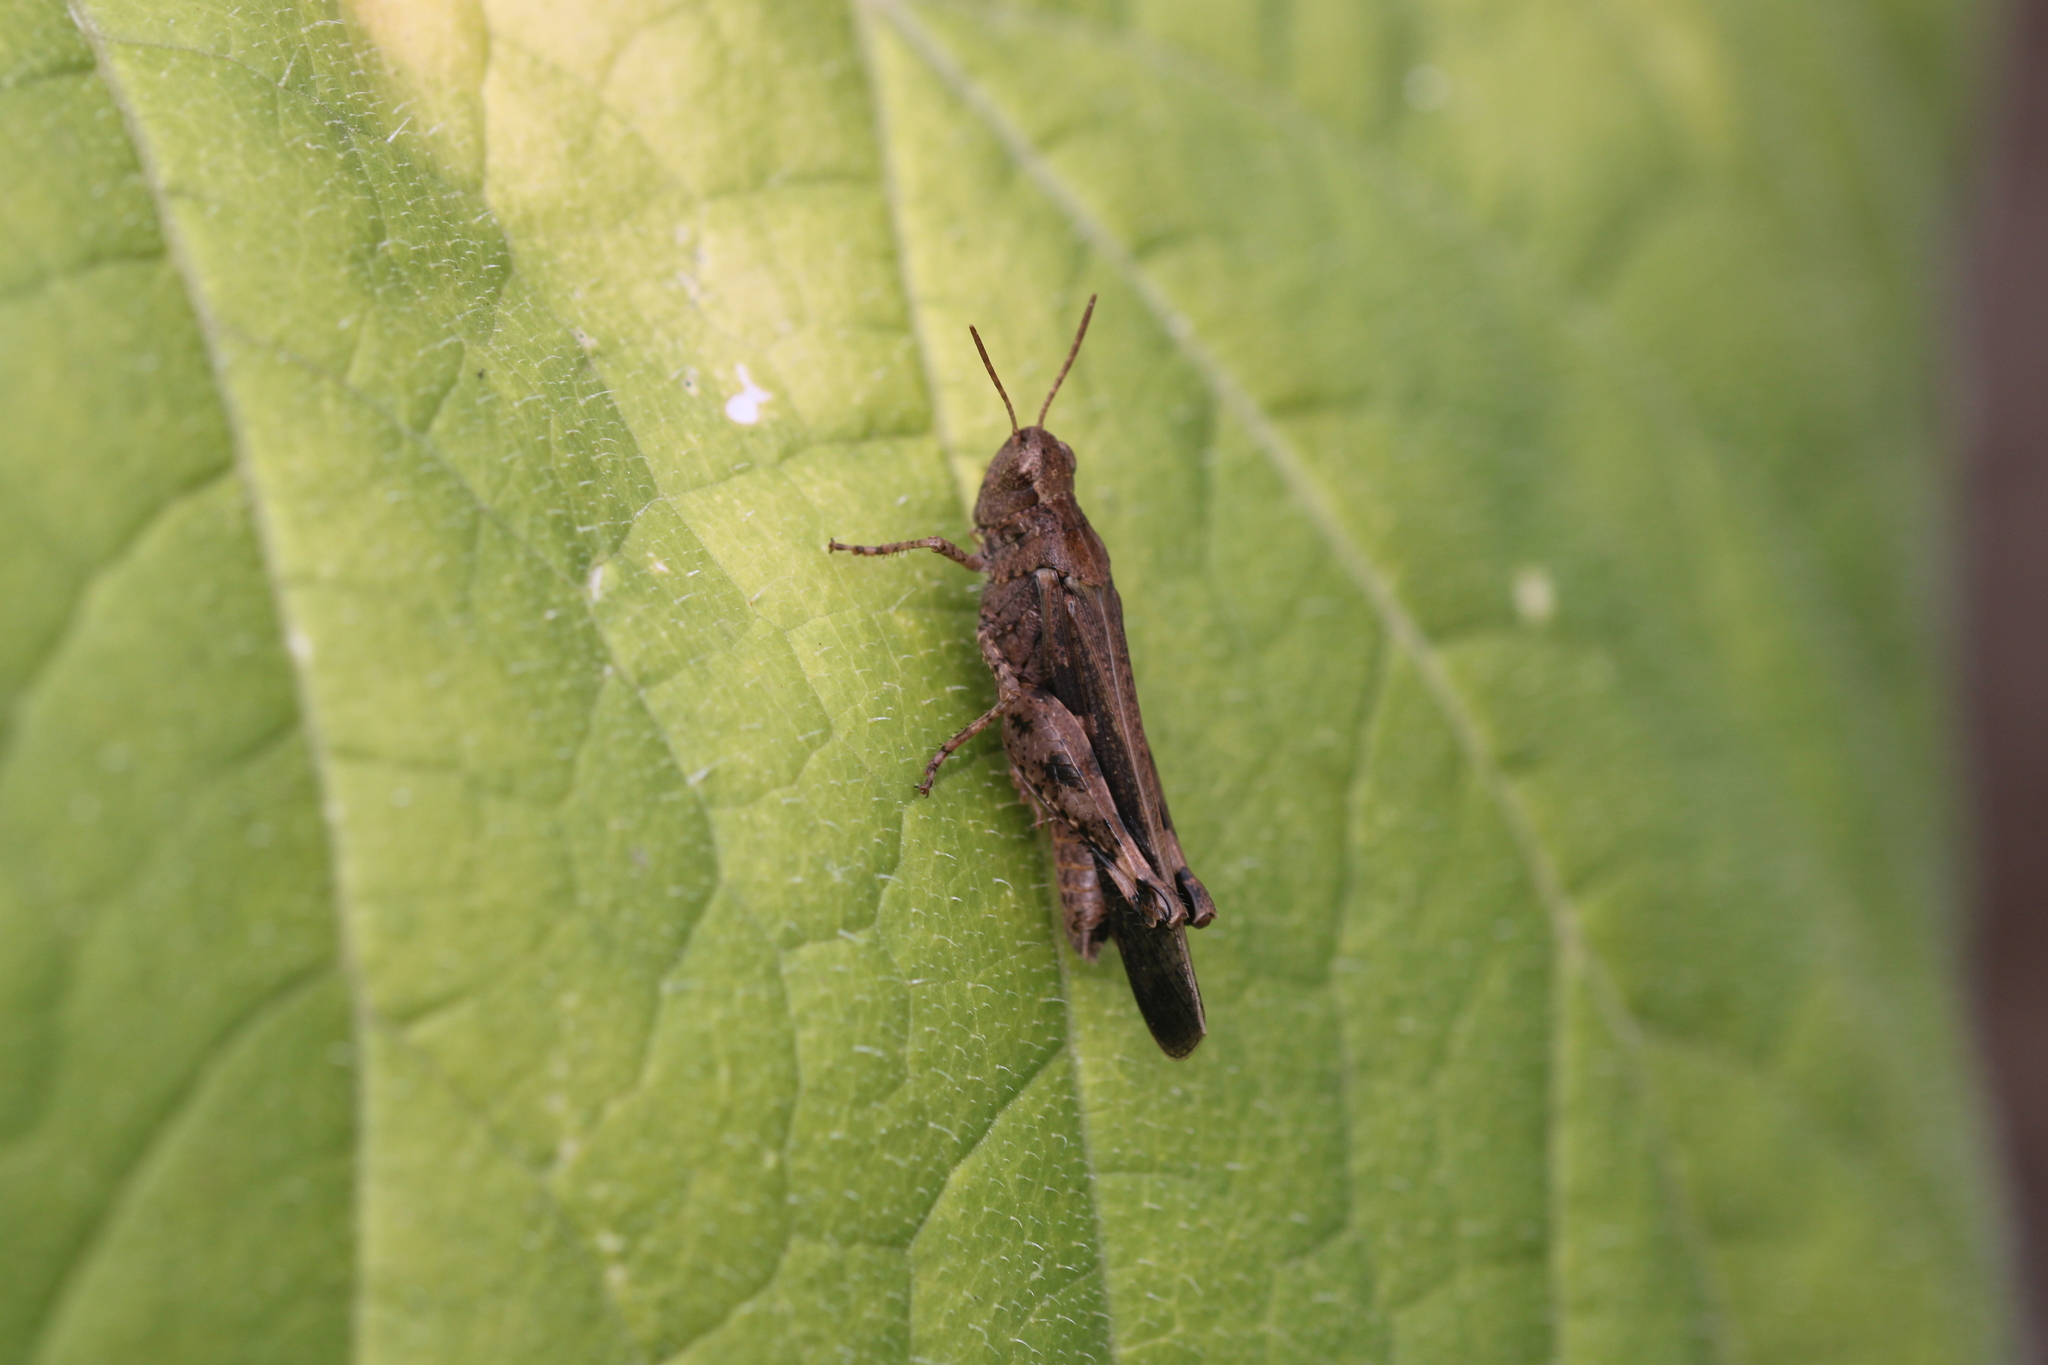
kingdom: Animalia
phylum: Arthropoda
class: Insecta
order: Orthoptera
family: Acrididae
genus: Aiolopus
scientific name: Aiolopus strepens
